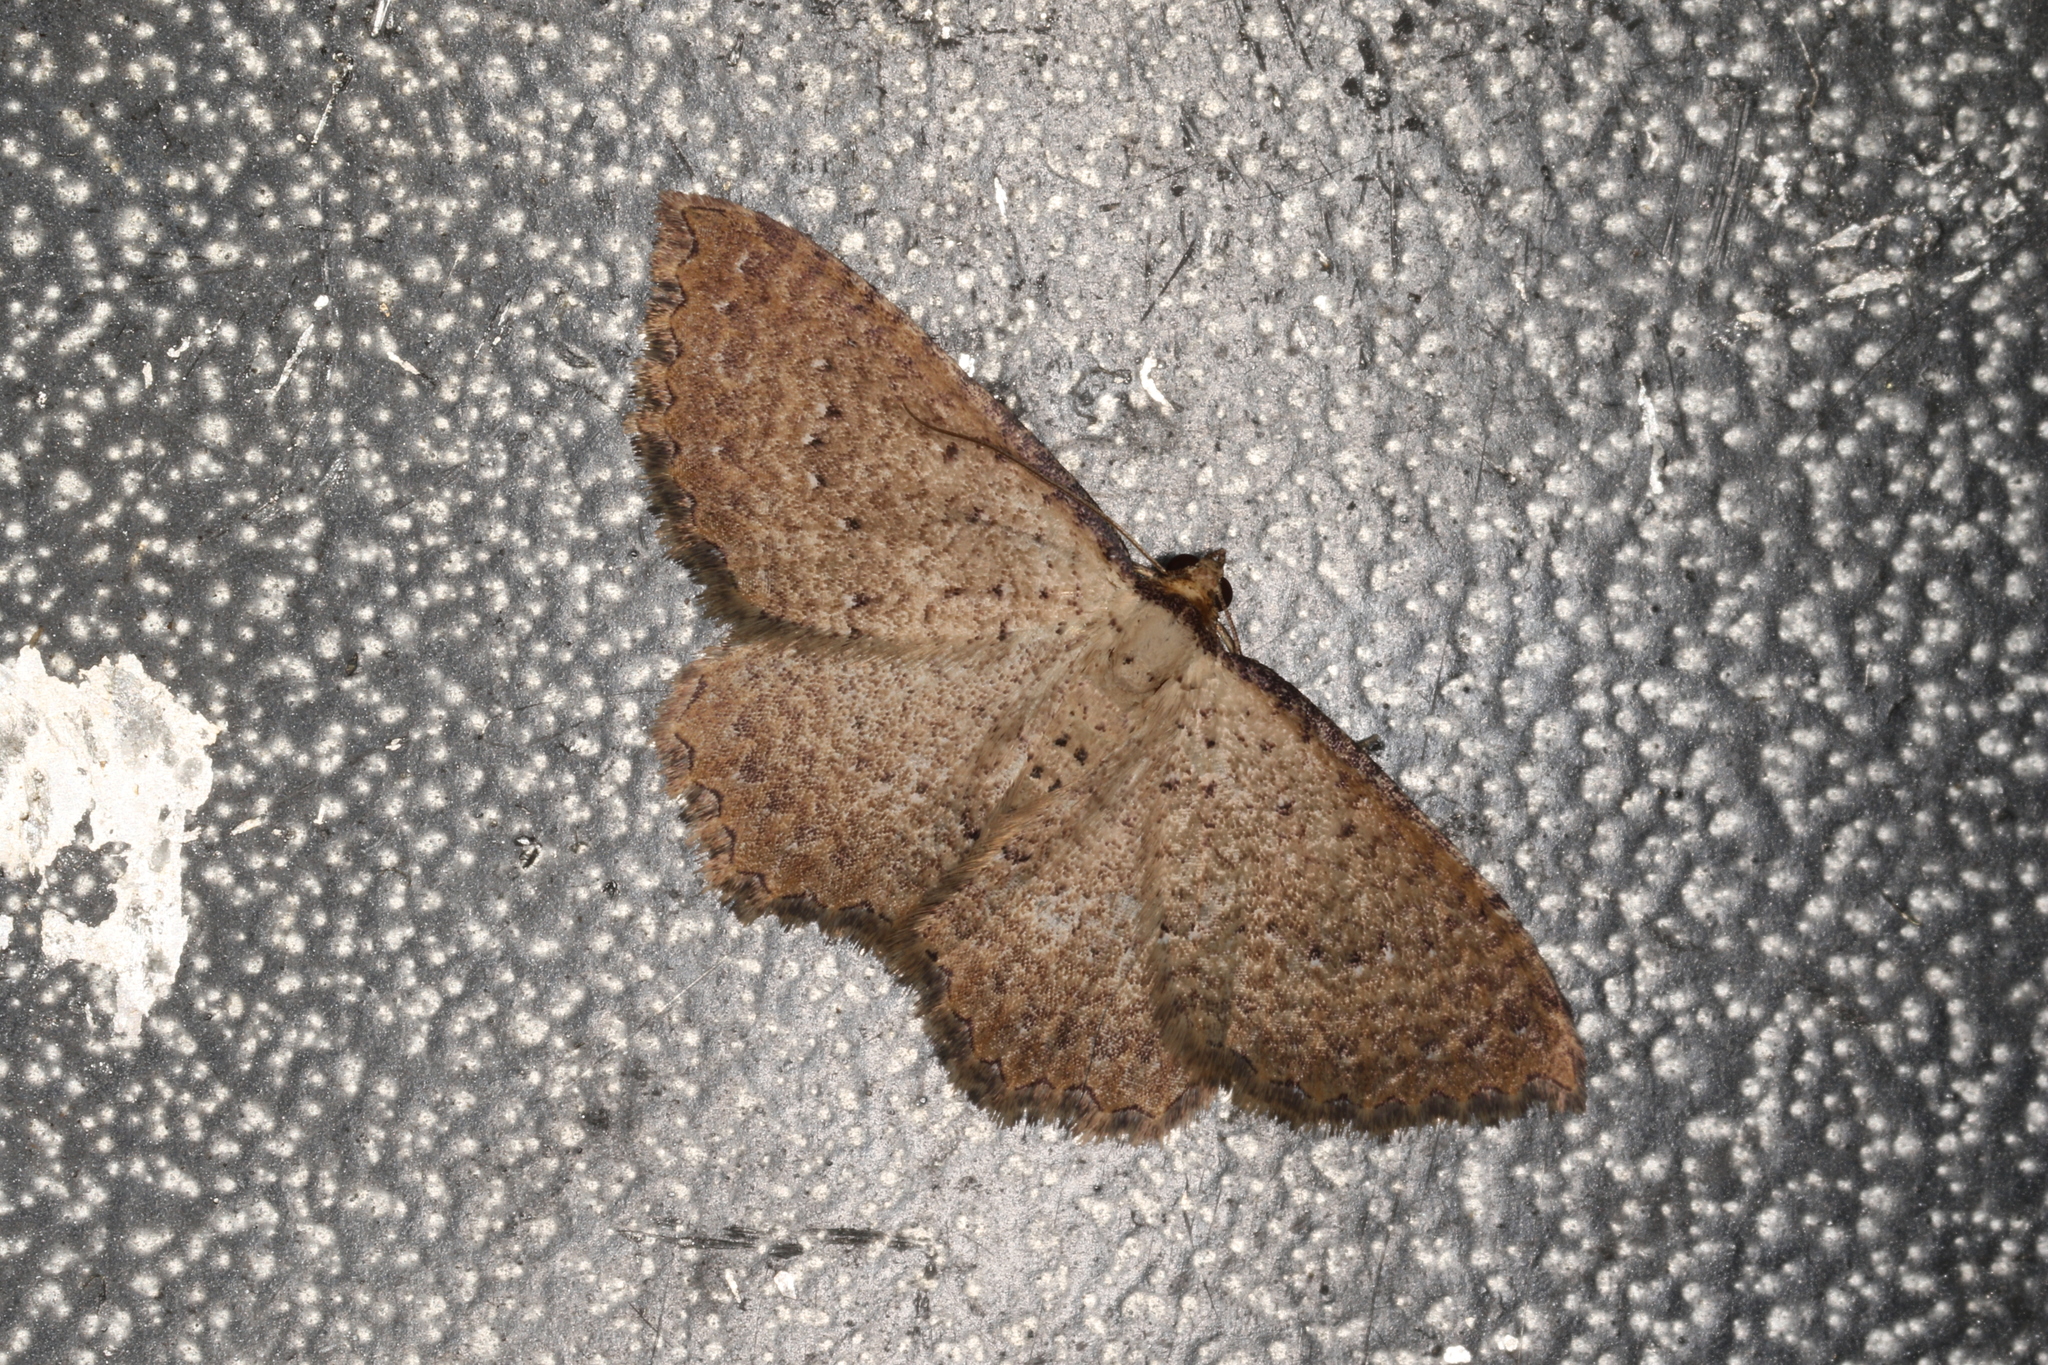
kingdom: Animalia
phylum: Arthropoda
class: Insecta
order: Lepidoptera
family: Geometridae
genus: Chrysolarentia
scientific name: Chrysolarentia microcyma
